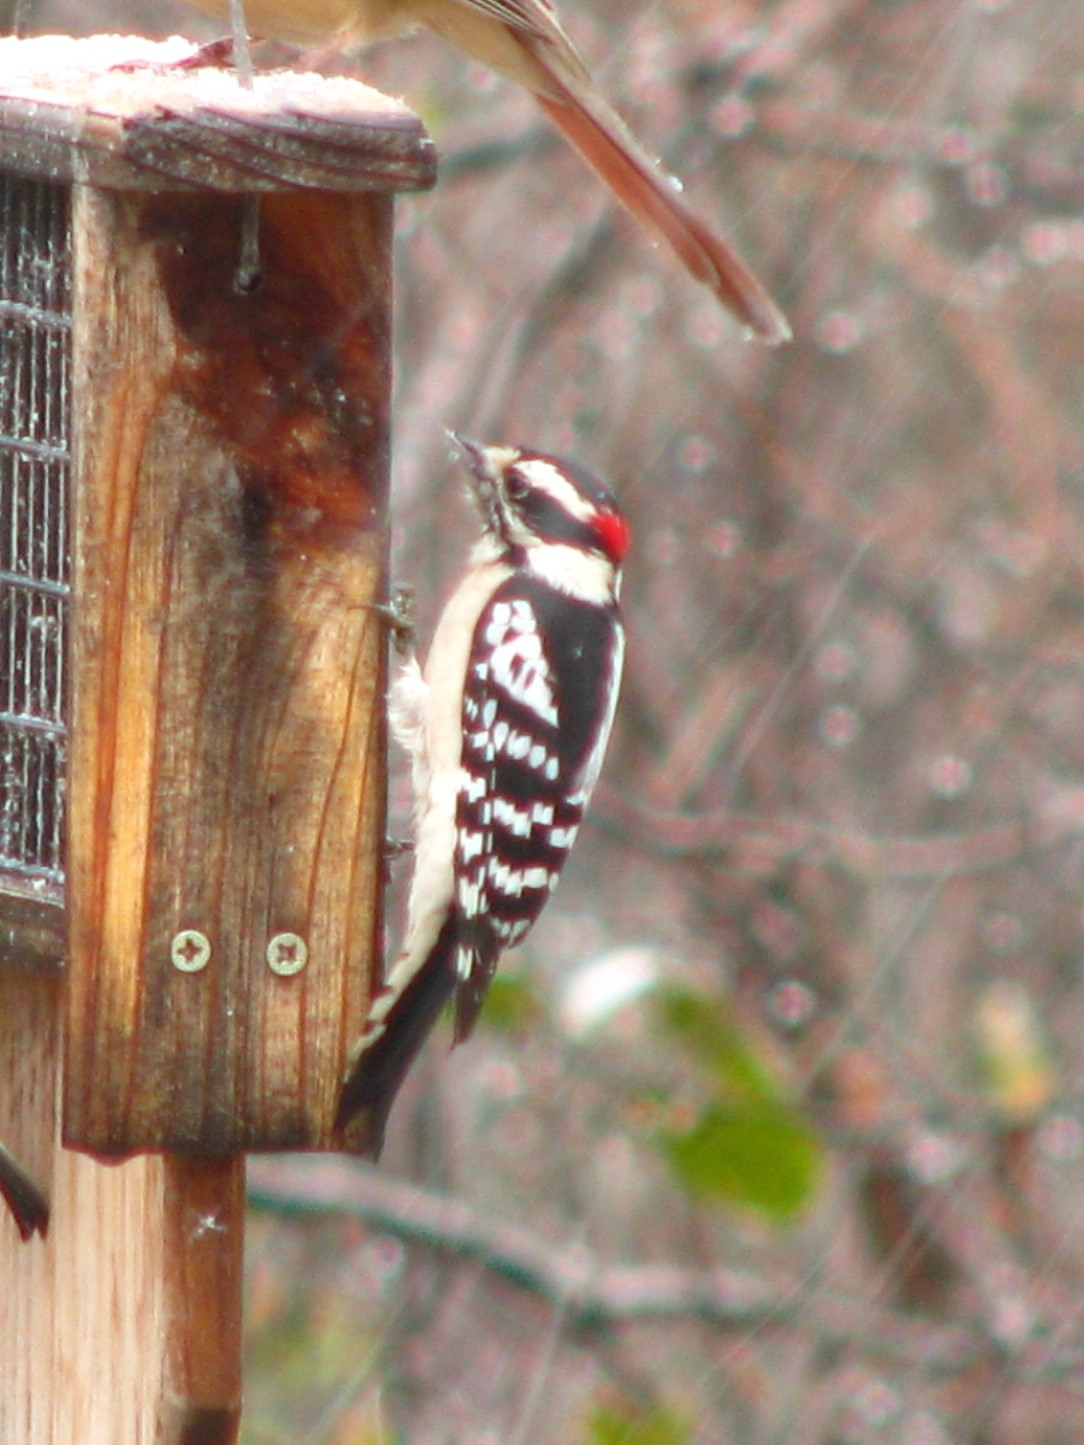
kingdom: Animalia
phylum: Chordata
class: Aves
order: Piciformes
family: Picidae
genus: Dryobates
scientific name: Dryobates pubescens
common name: Downy woodpecker
